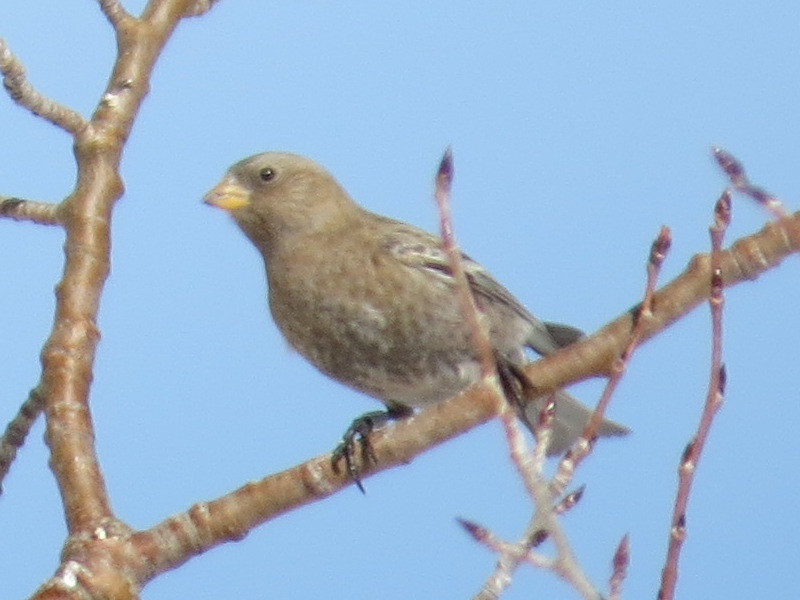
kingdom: Animalia
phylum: Chordata
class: Aves
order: Passeriformes
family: Fringillidae
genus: Leucosticte
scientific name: Leucosticte australis
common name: Brown-capped rosy-finch
